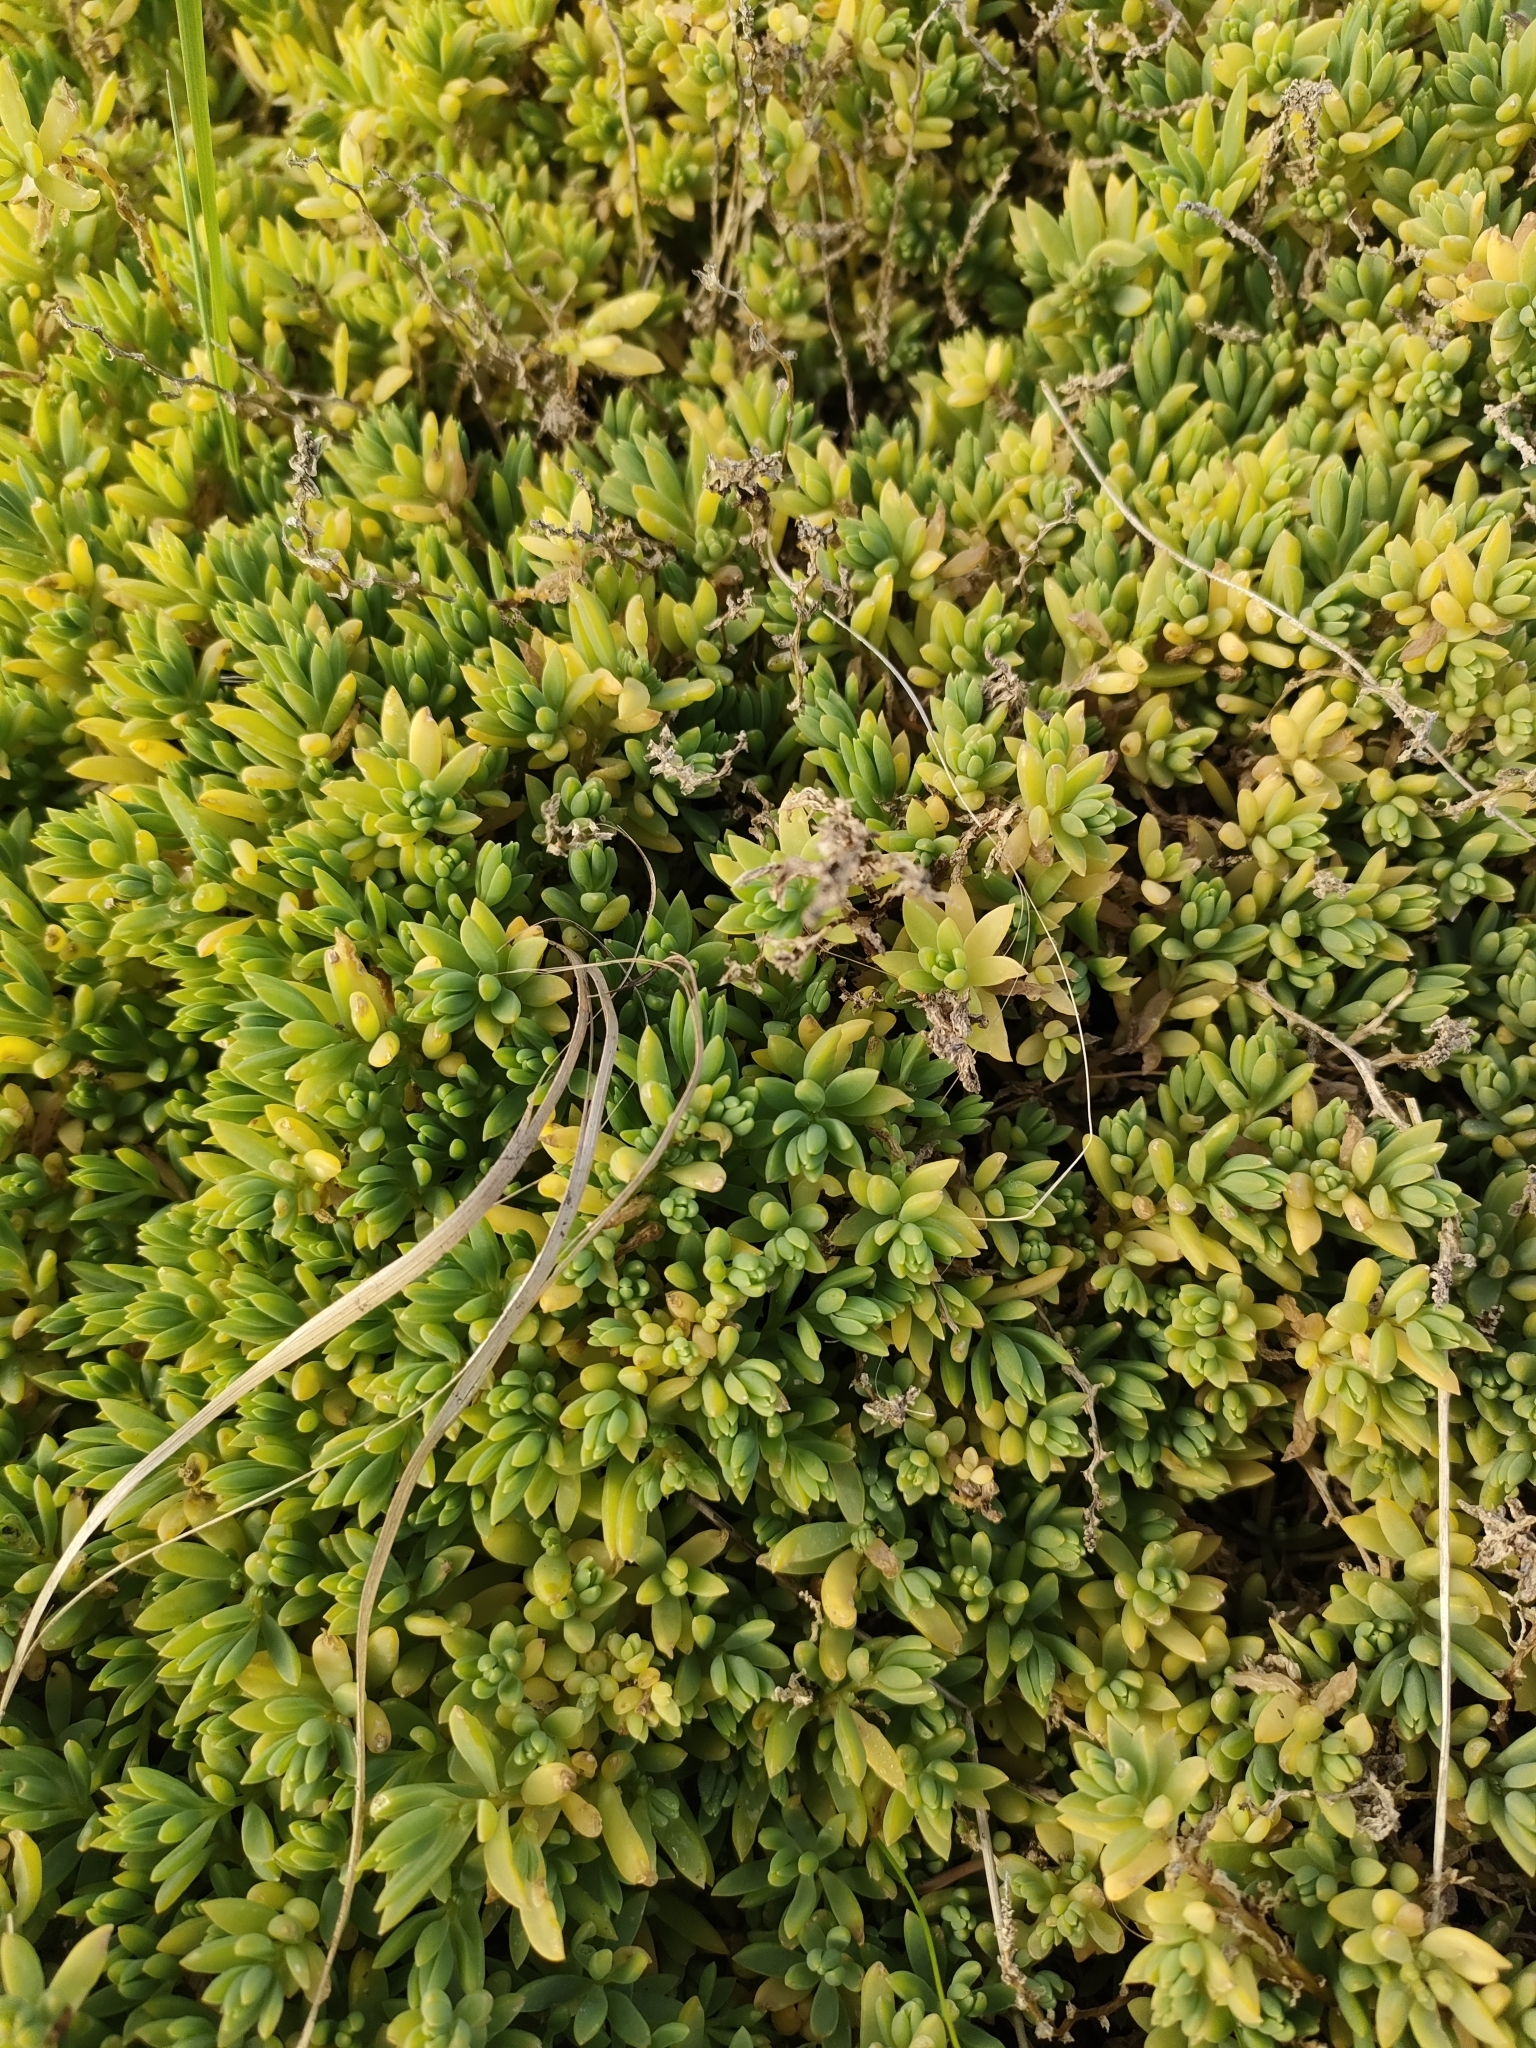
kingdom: Plantae
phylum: Tracheophyta
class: Magnoliopsida
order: Caryophyllales
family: Amaranthaceae
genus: Suaeda
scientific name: Suaeda novae-zelandiae
